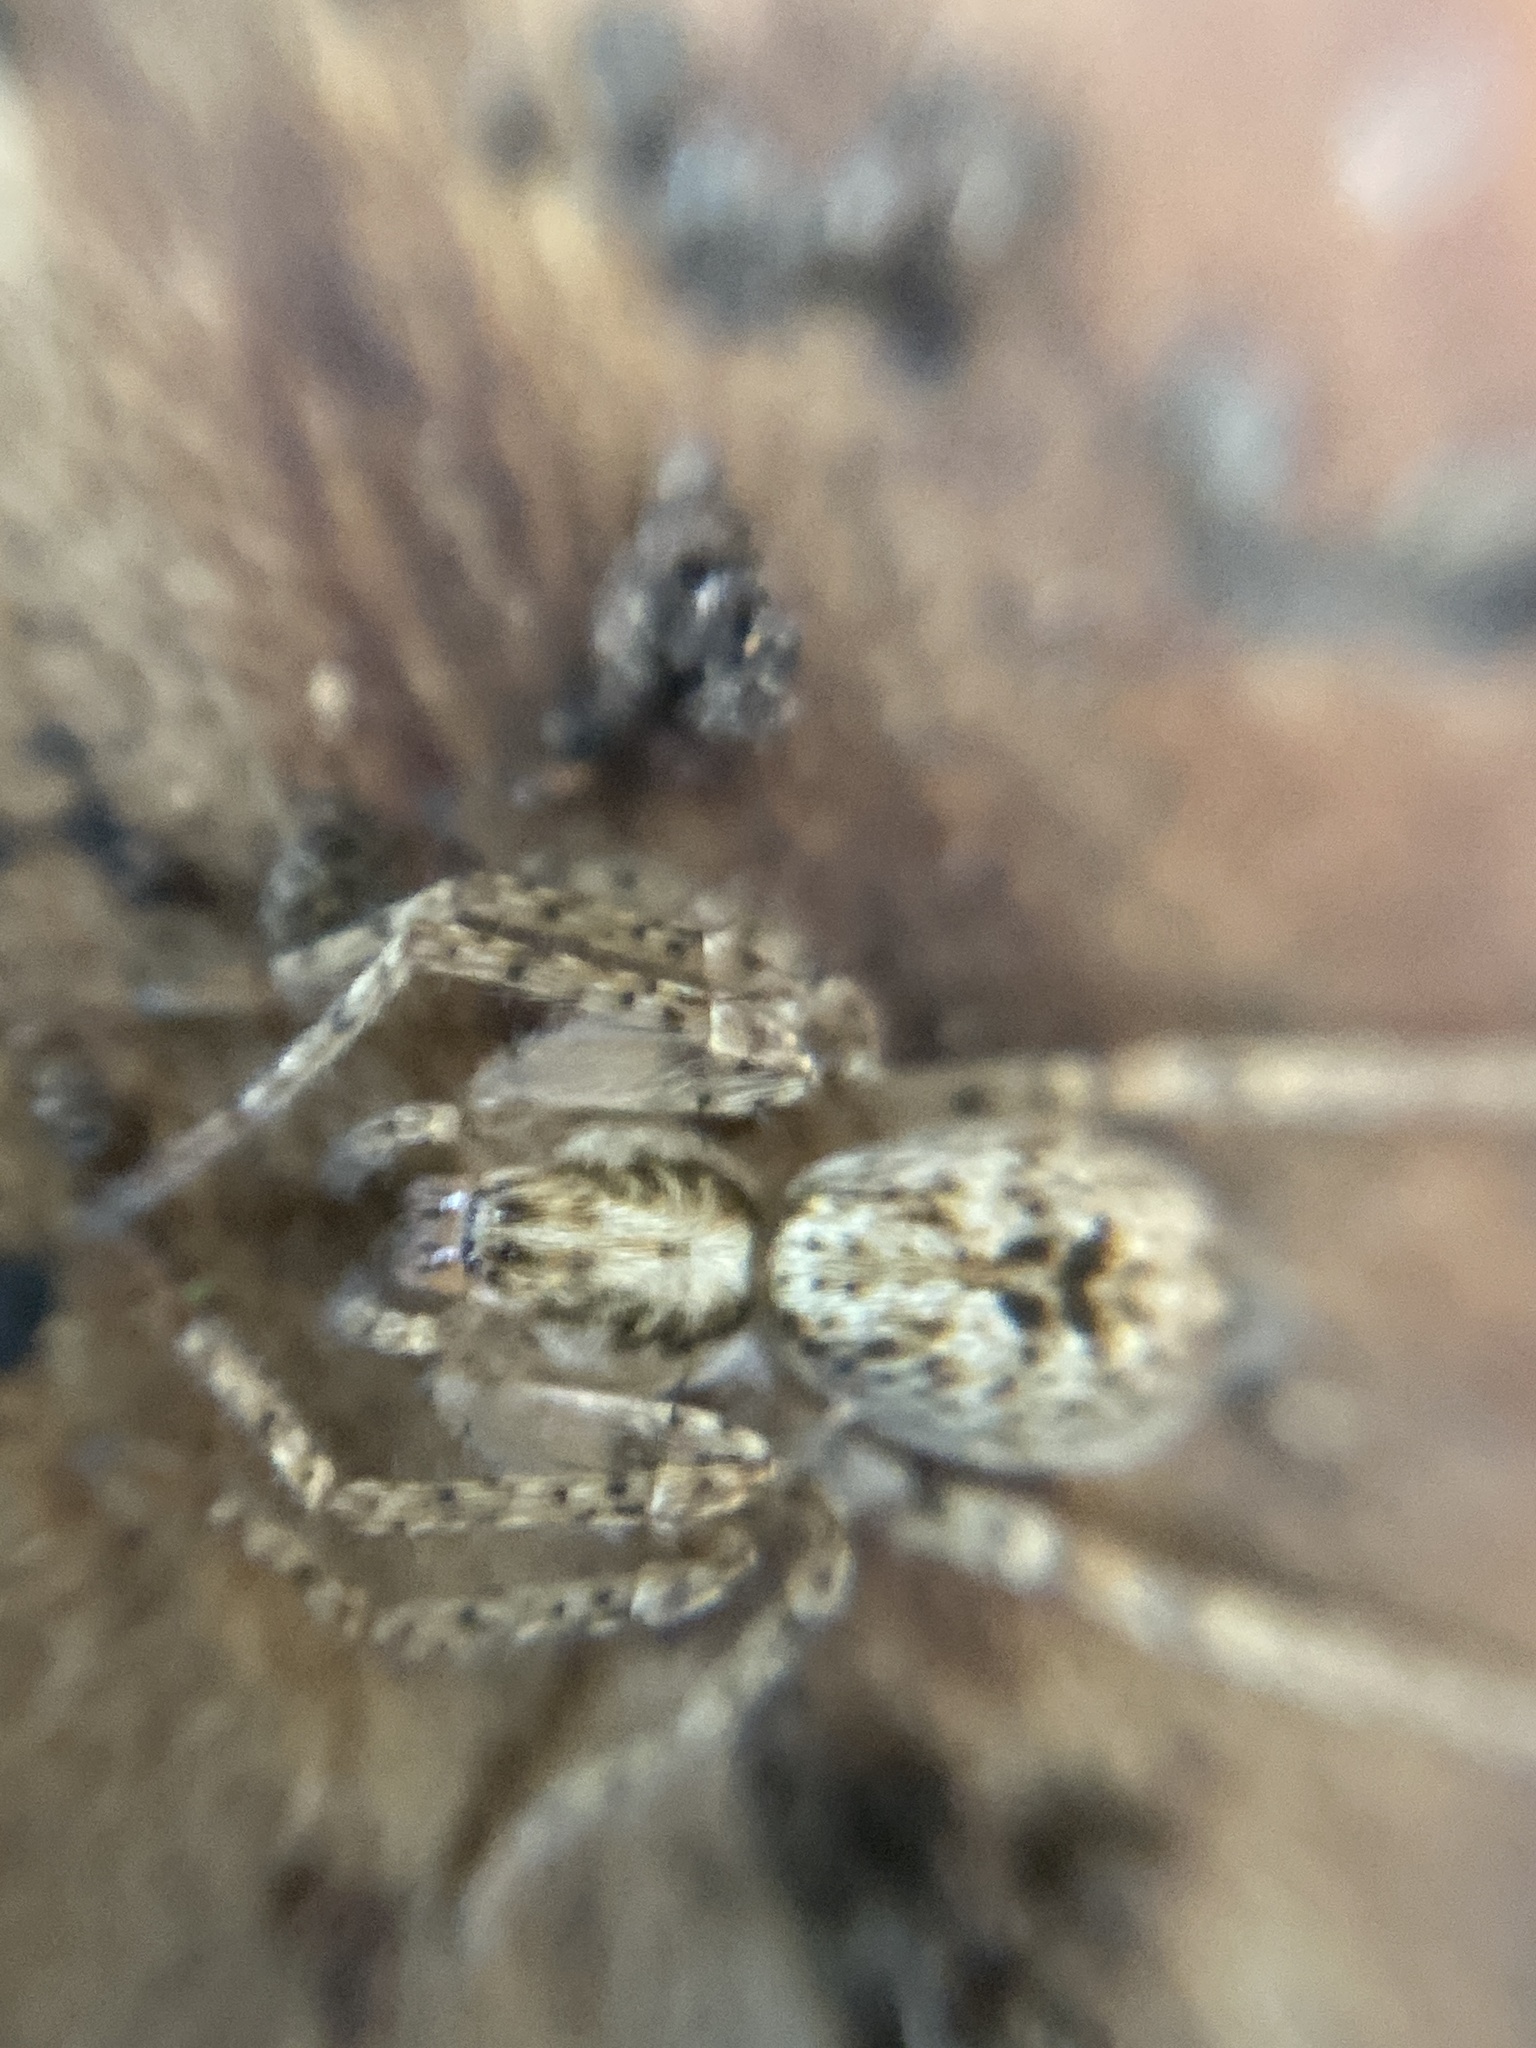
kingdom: Animalia
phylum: Arthropoda
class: Arachnida
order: Araneae
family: Anyphaenidae
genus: Anyphaena
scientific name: Anyphaena accentuata
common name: Buzzing spider
